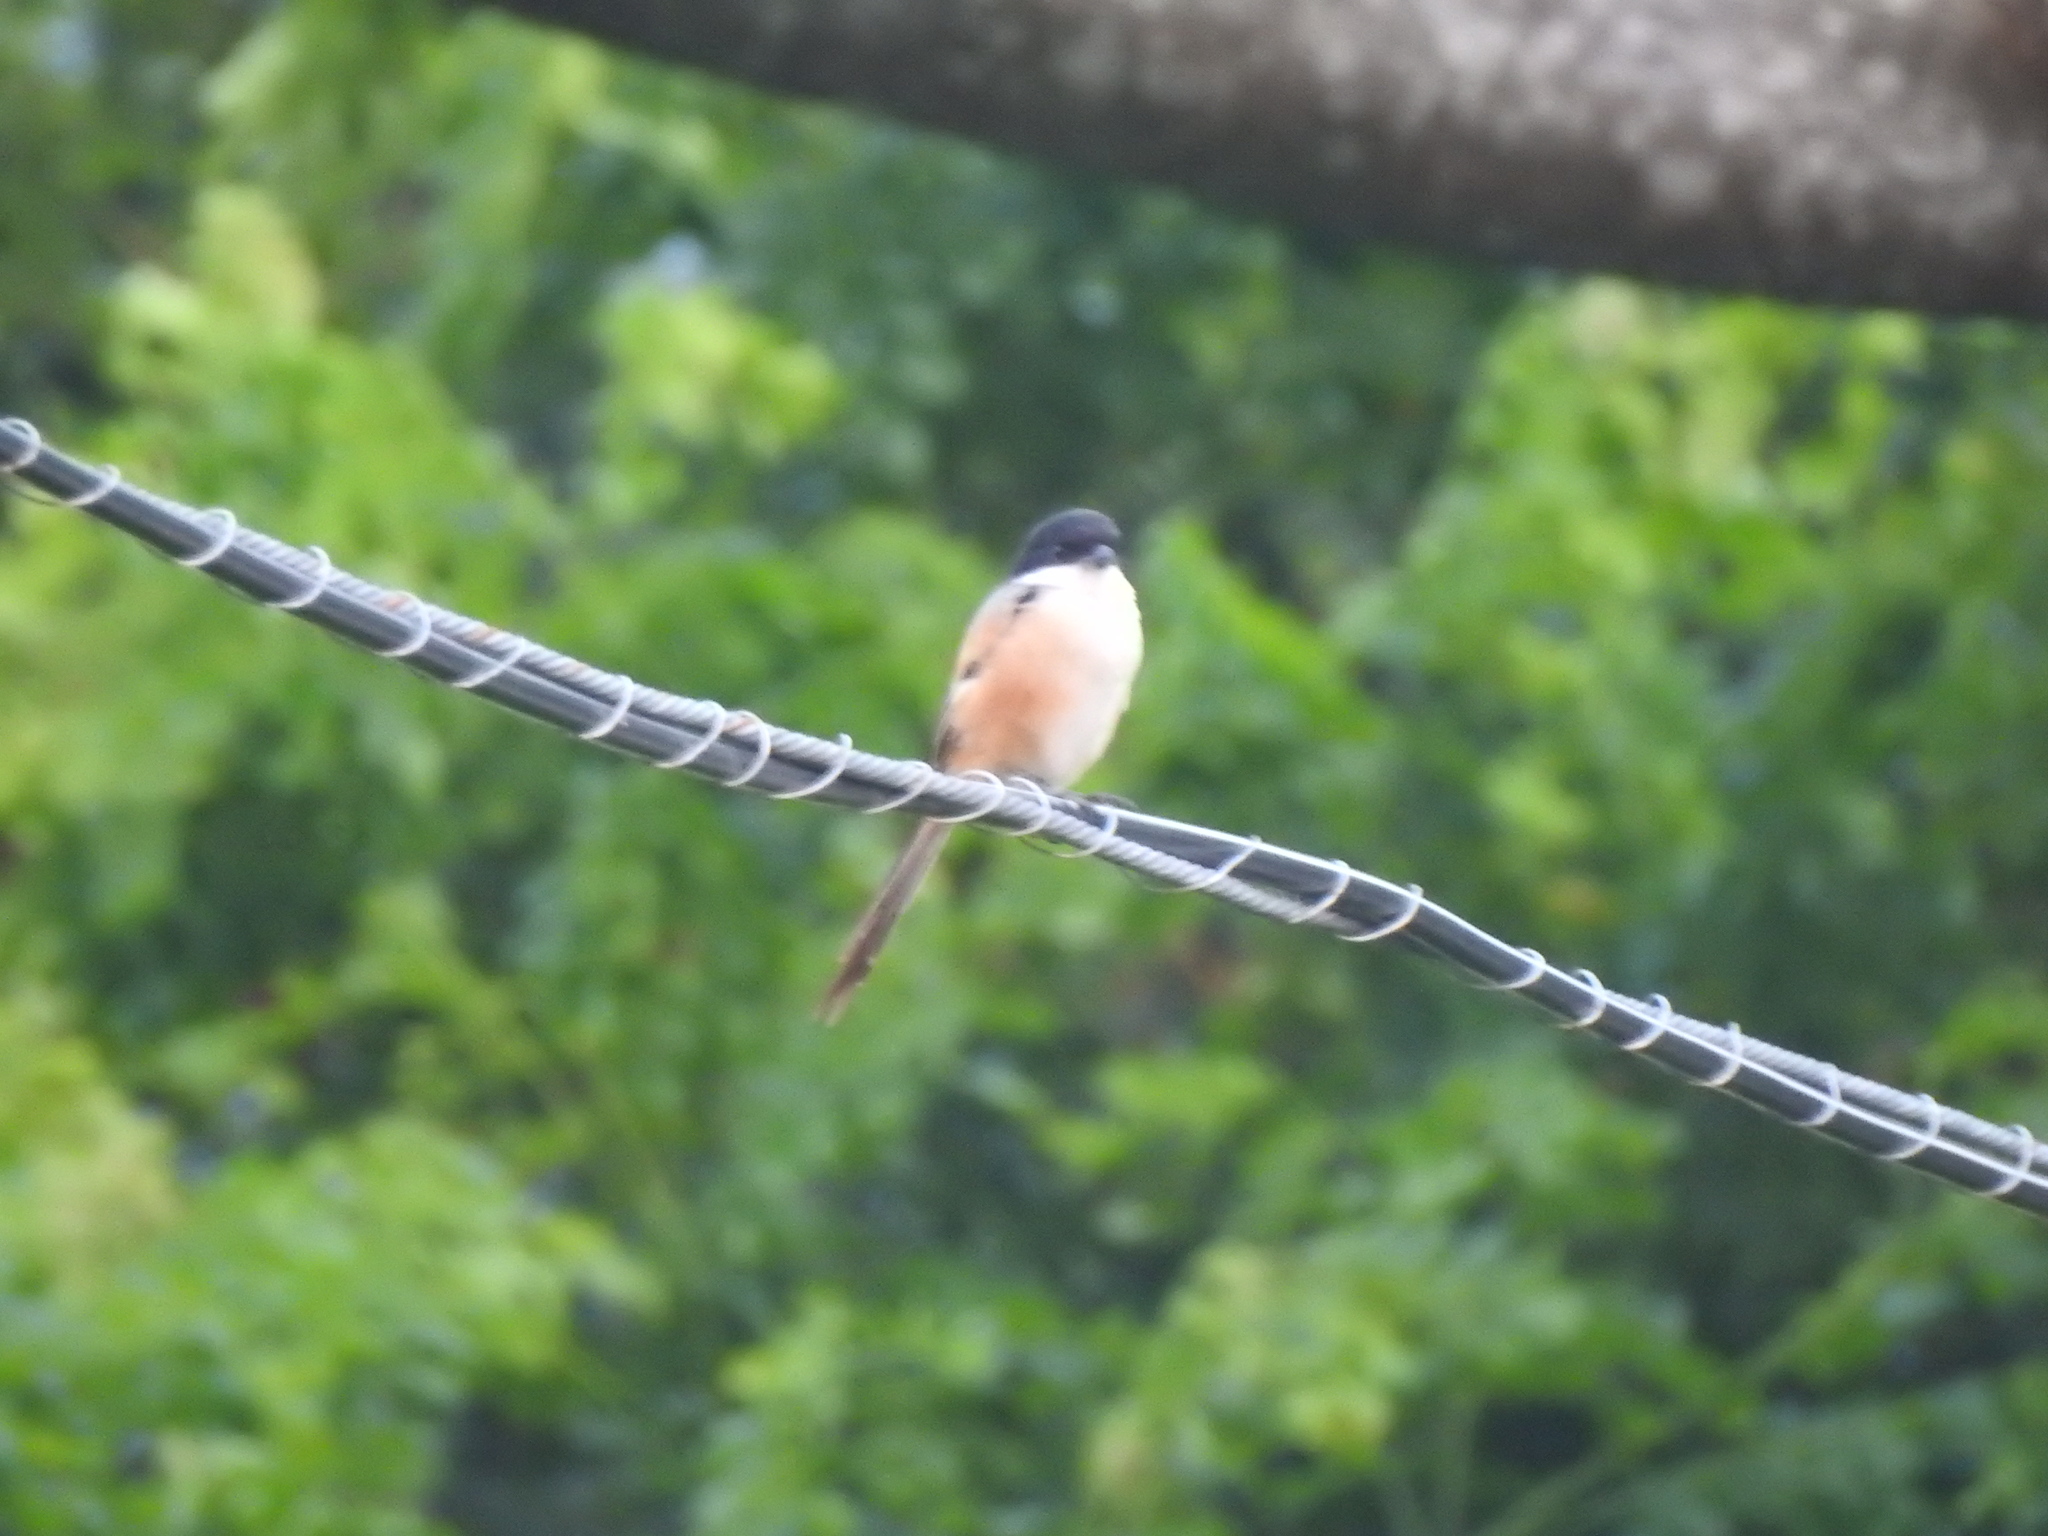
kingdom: Animalia
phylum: Chordata
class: Aves
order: Passeriformes
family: Laniidae
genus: Lanius
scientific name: Lanius schach
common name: Long-tailed shrike
